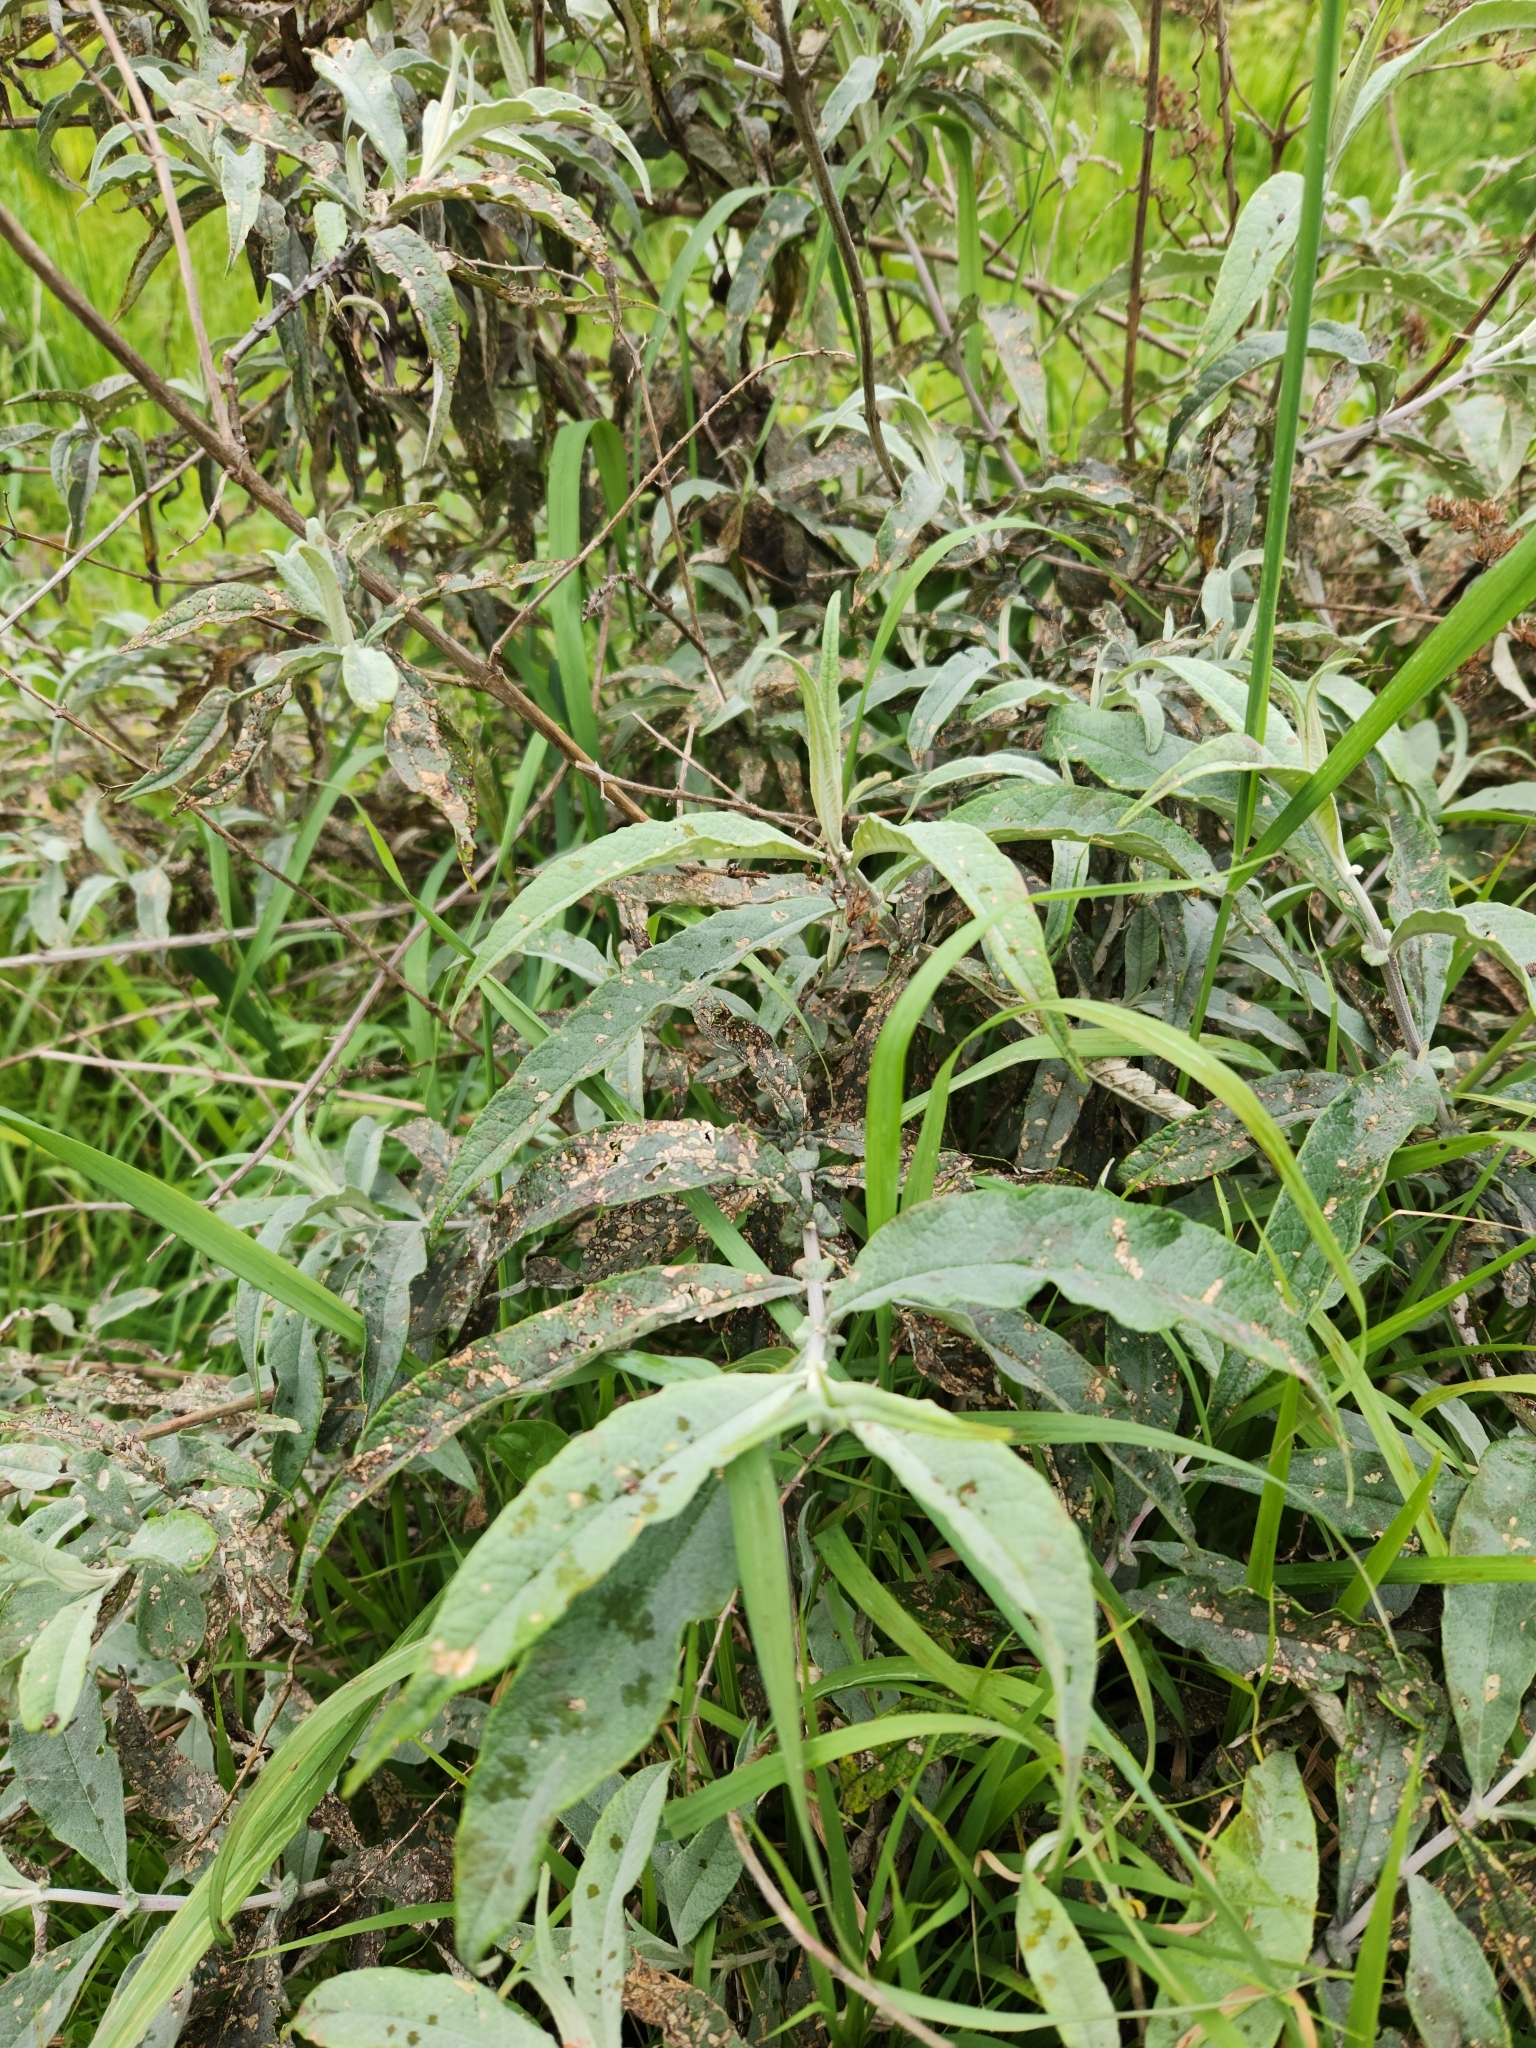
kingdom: Plantae
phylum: Tracheophyta
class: Magnoliopsida
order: Lamiales
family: Scrophulariaceae
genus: Buddleja
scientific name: Buddleja davidii
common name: Butterfly-bush
